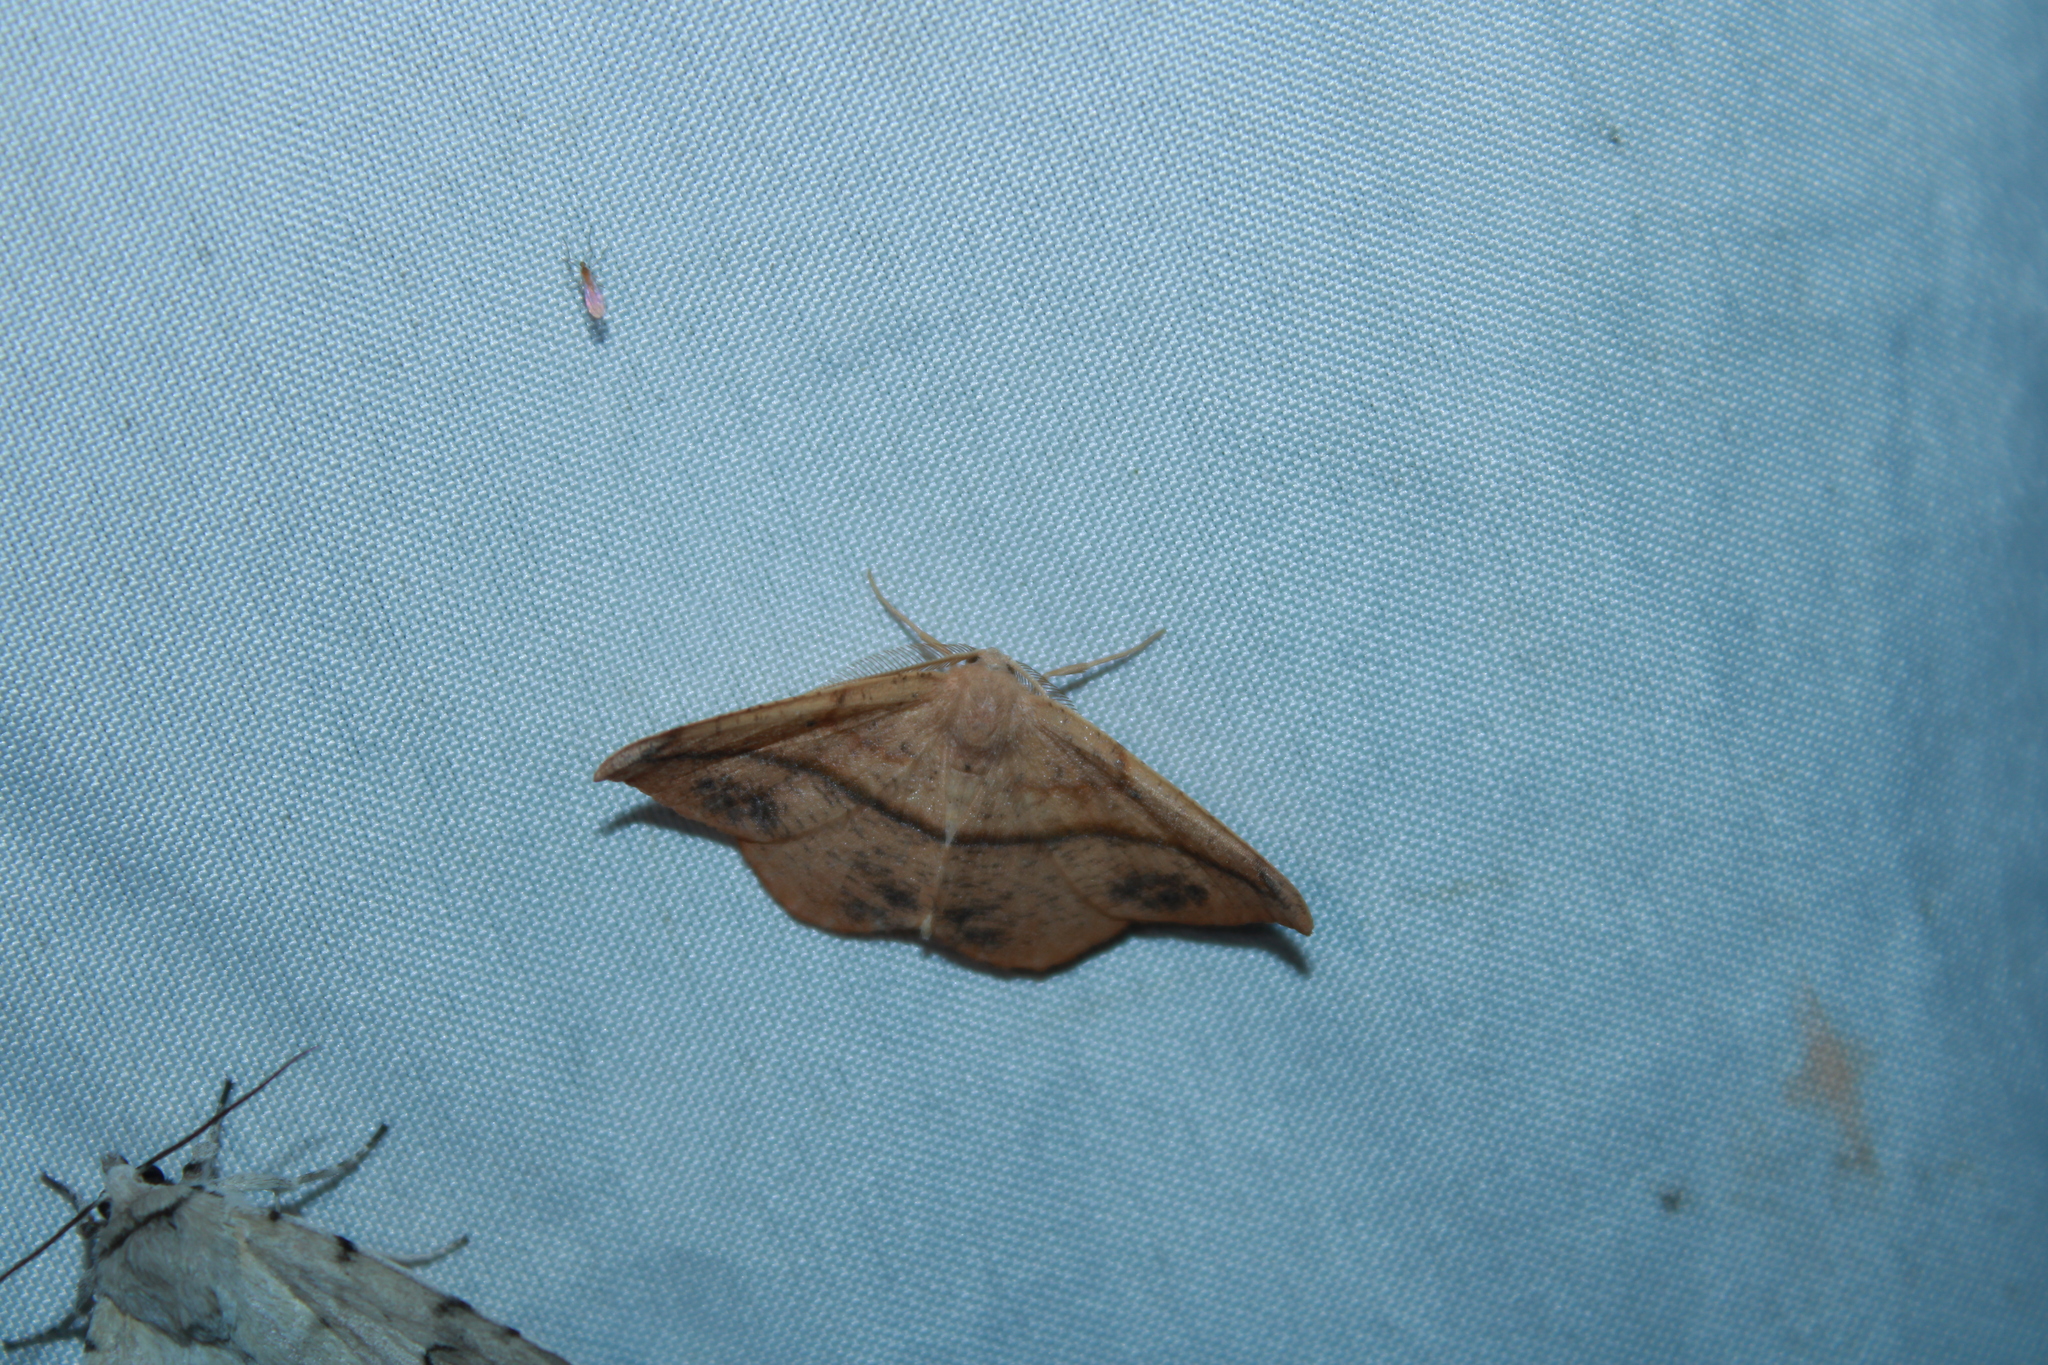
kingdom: Animalia
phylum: Arthropoda
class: Insecta
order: Lepidoptera
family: Geometridae
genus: Patalene
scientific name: Patalene olyzonaria
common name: Juniper geometer moth
